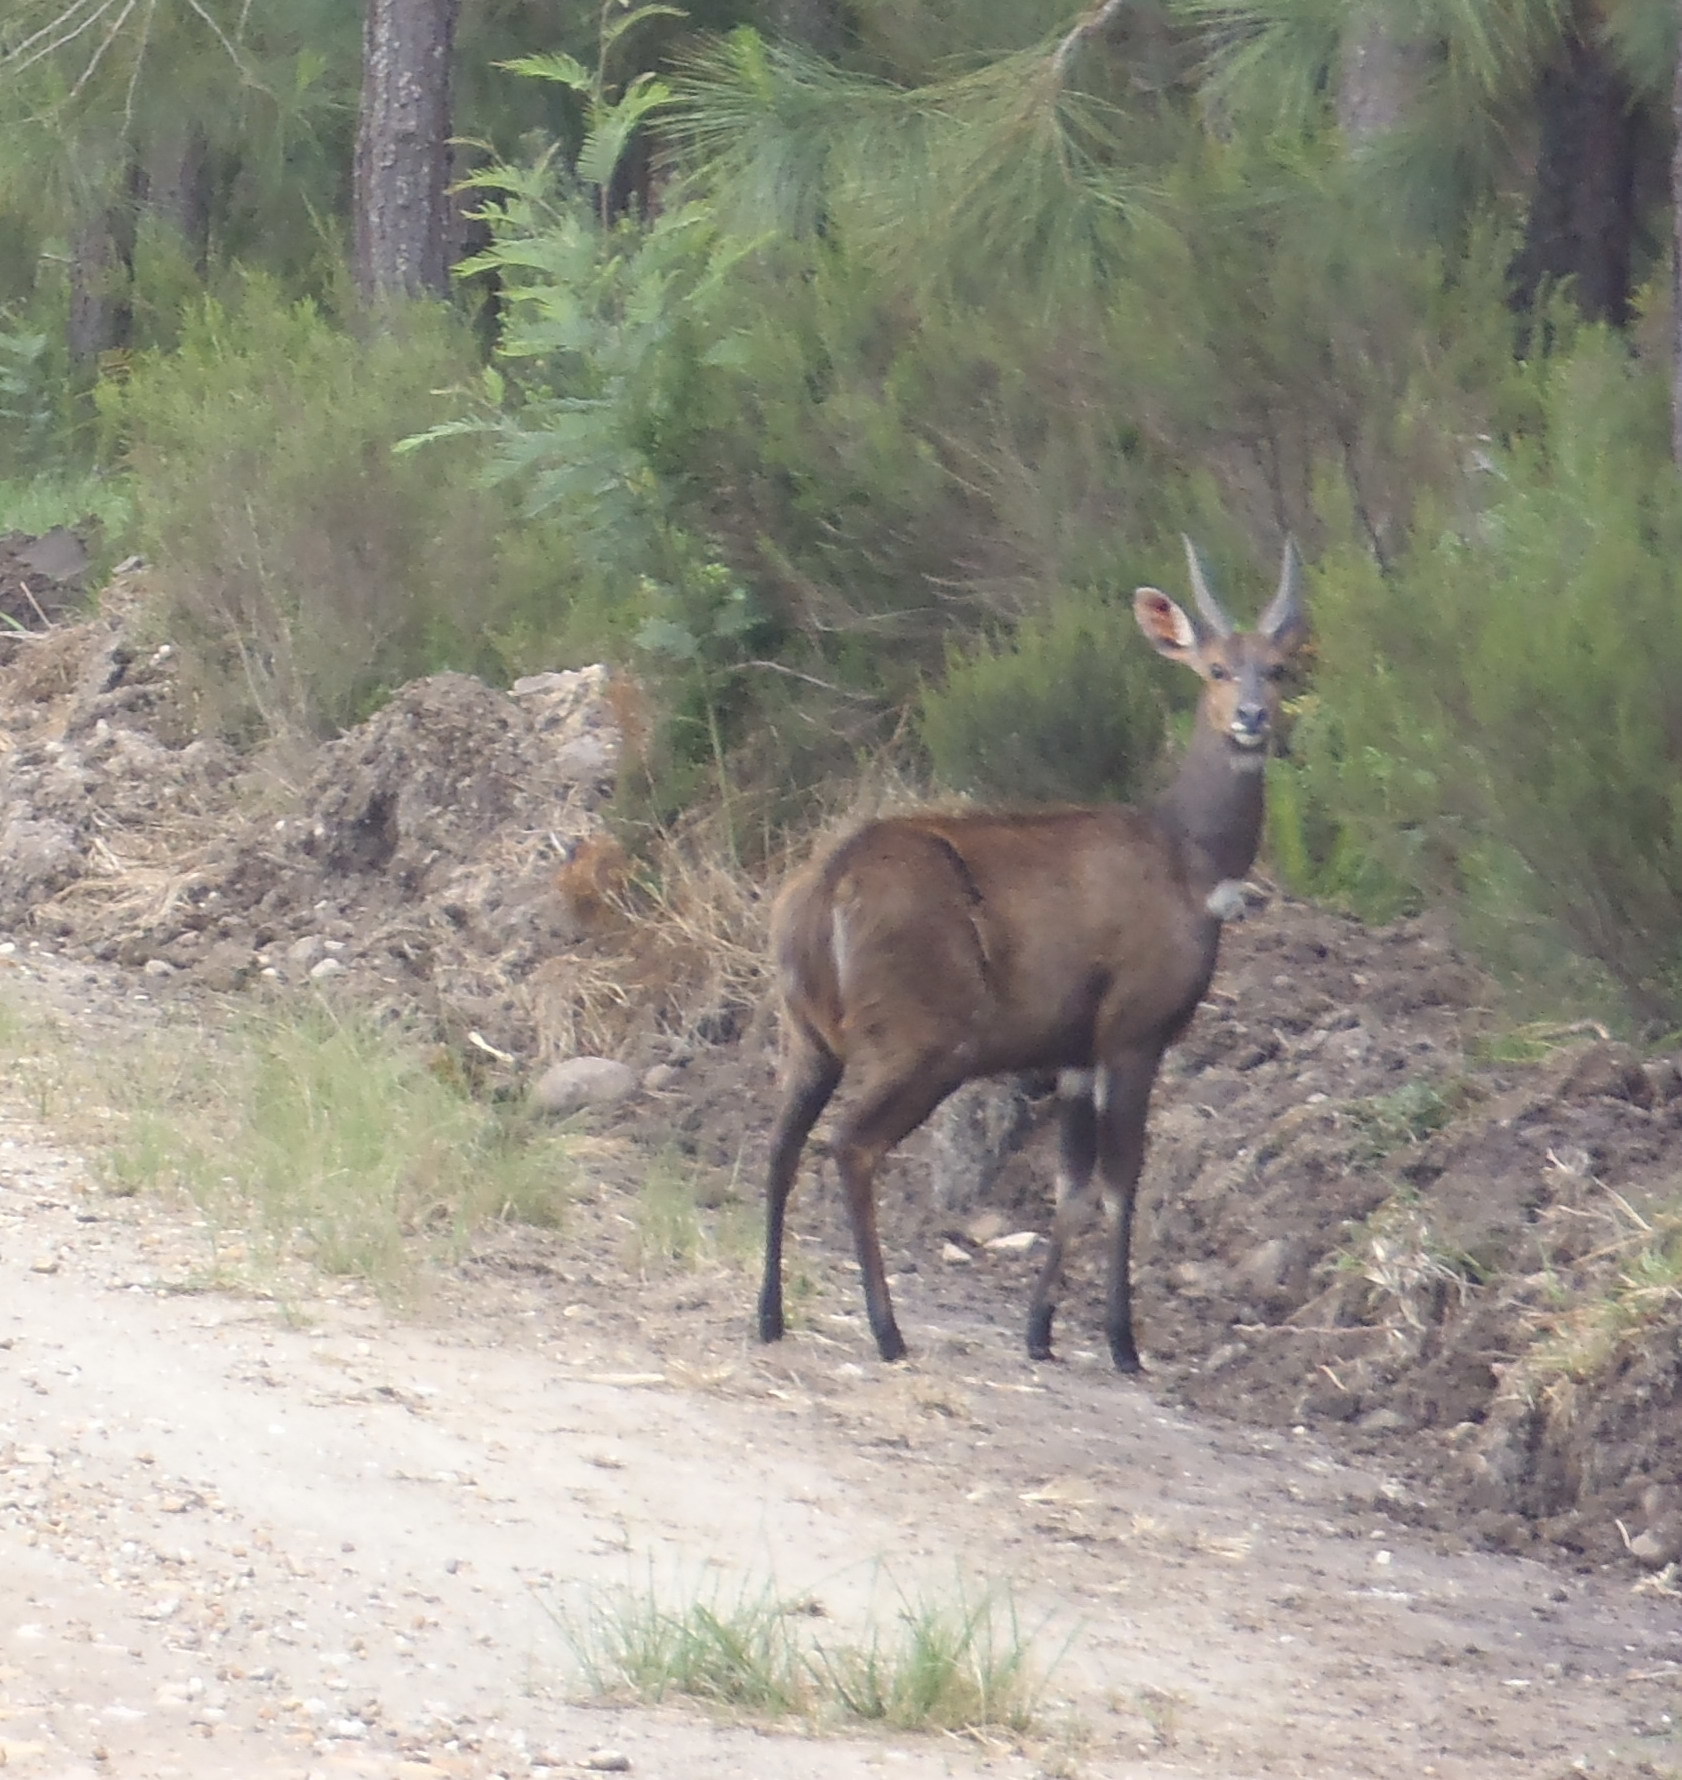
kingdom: Animalia
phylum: Chordata
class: Mammalia
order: Artiodactyla
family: Bovidae
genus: Tragelaphus
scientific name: Tragelaphus scriptus
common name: Bushbuck
